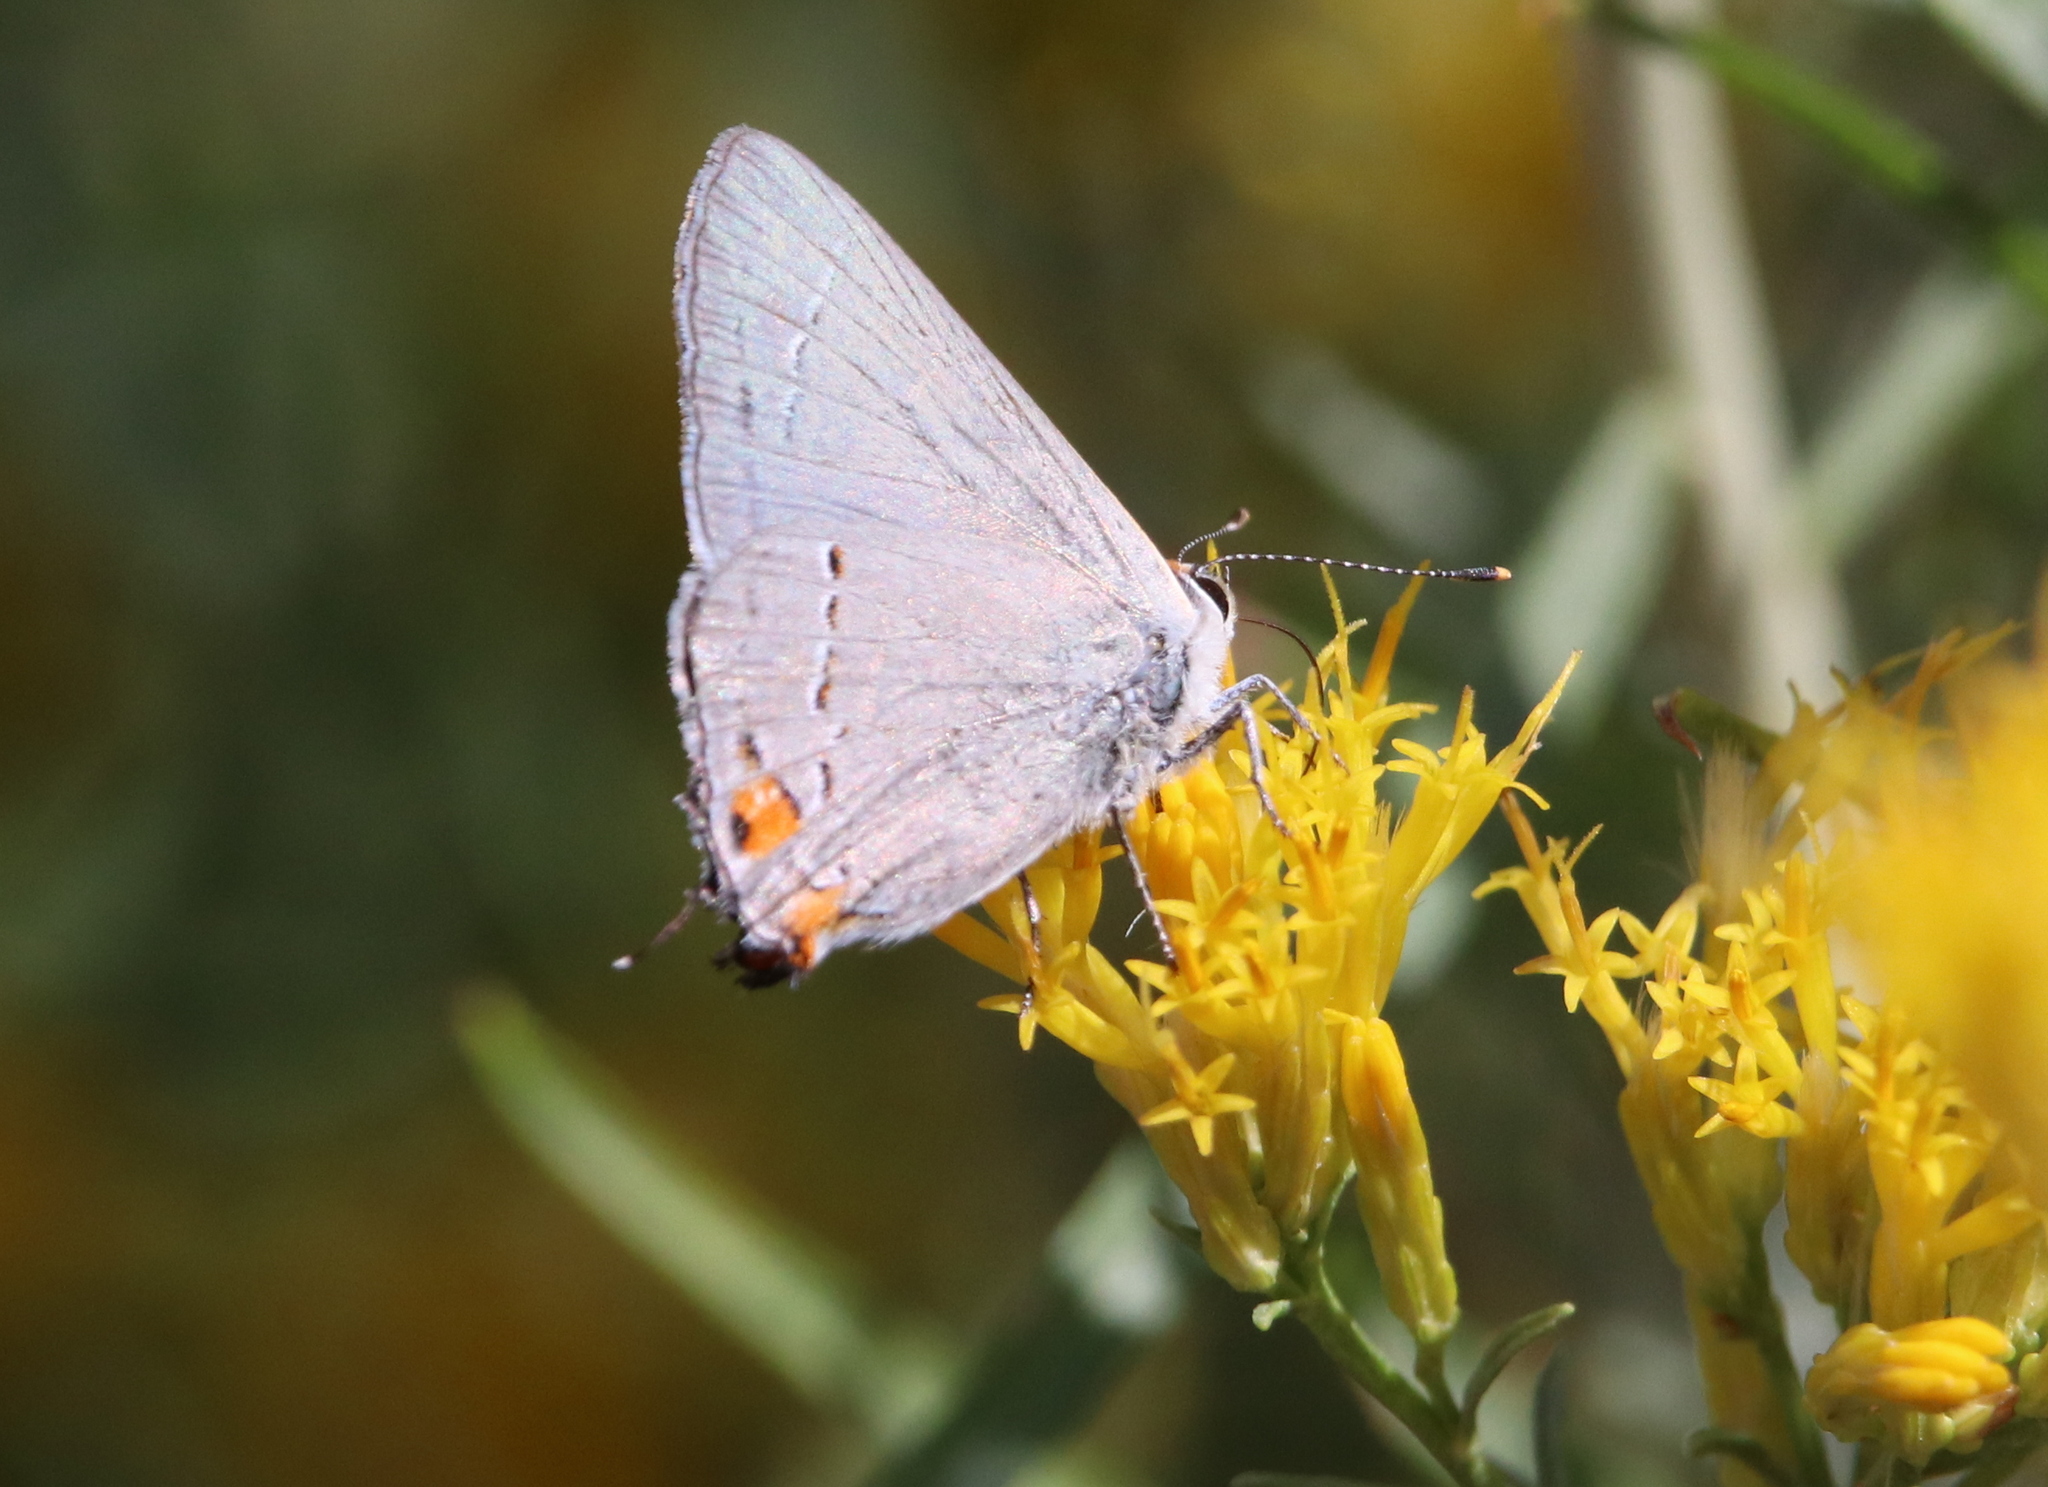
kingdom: Animalia
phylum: Arthropoda
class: Insecta
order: Lepidoptera
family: Lycaenidae
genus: Strymon
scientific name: Strymon melinus
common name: Gray hairstreak
